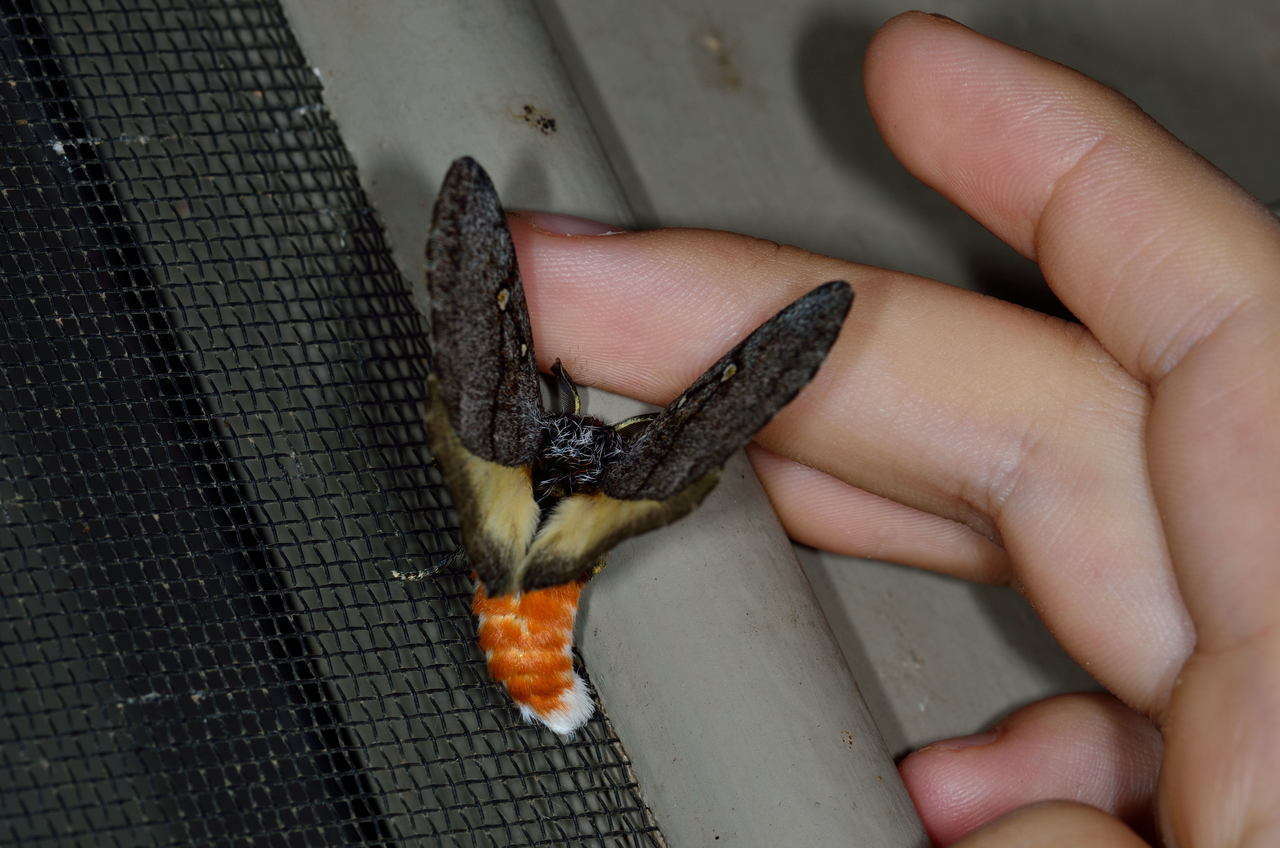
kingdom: Animalia
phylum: Arthropoda
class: Insecta
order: Lepidoptera
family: Anthelidae
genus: Anthela
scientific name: Anthela xantharcha
